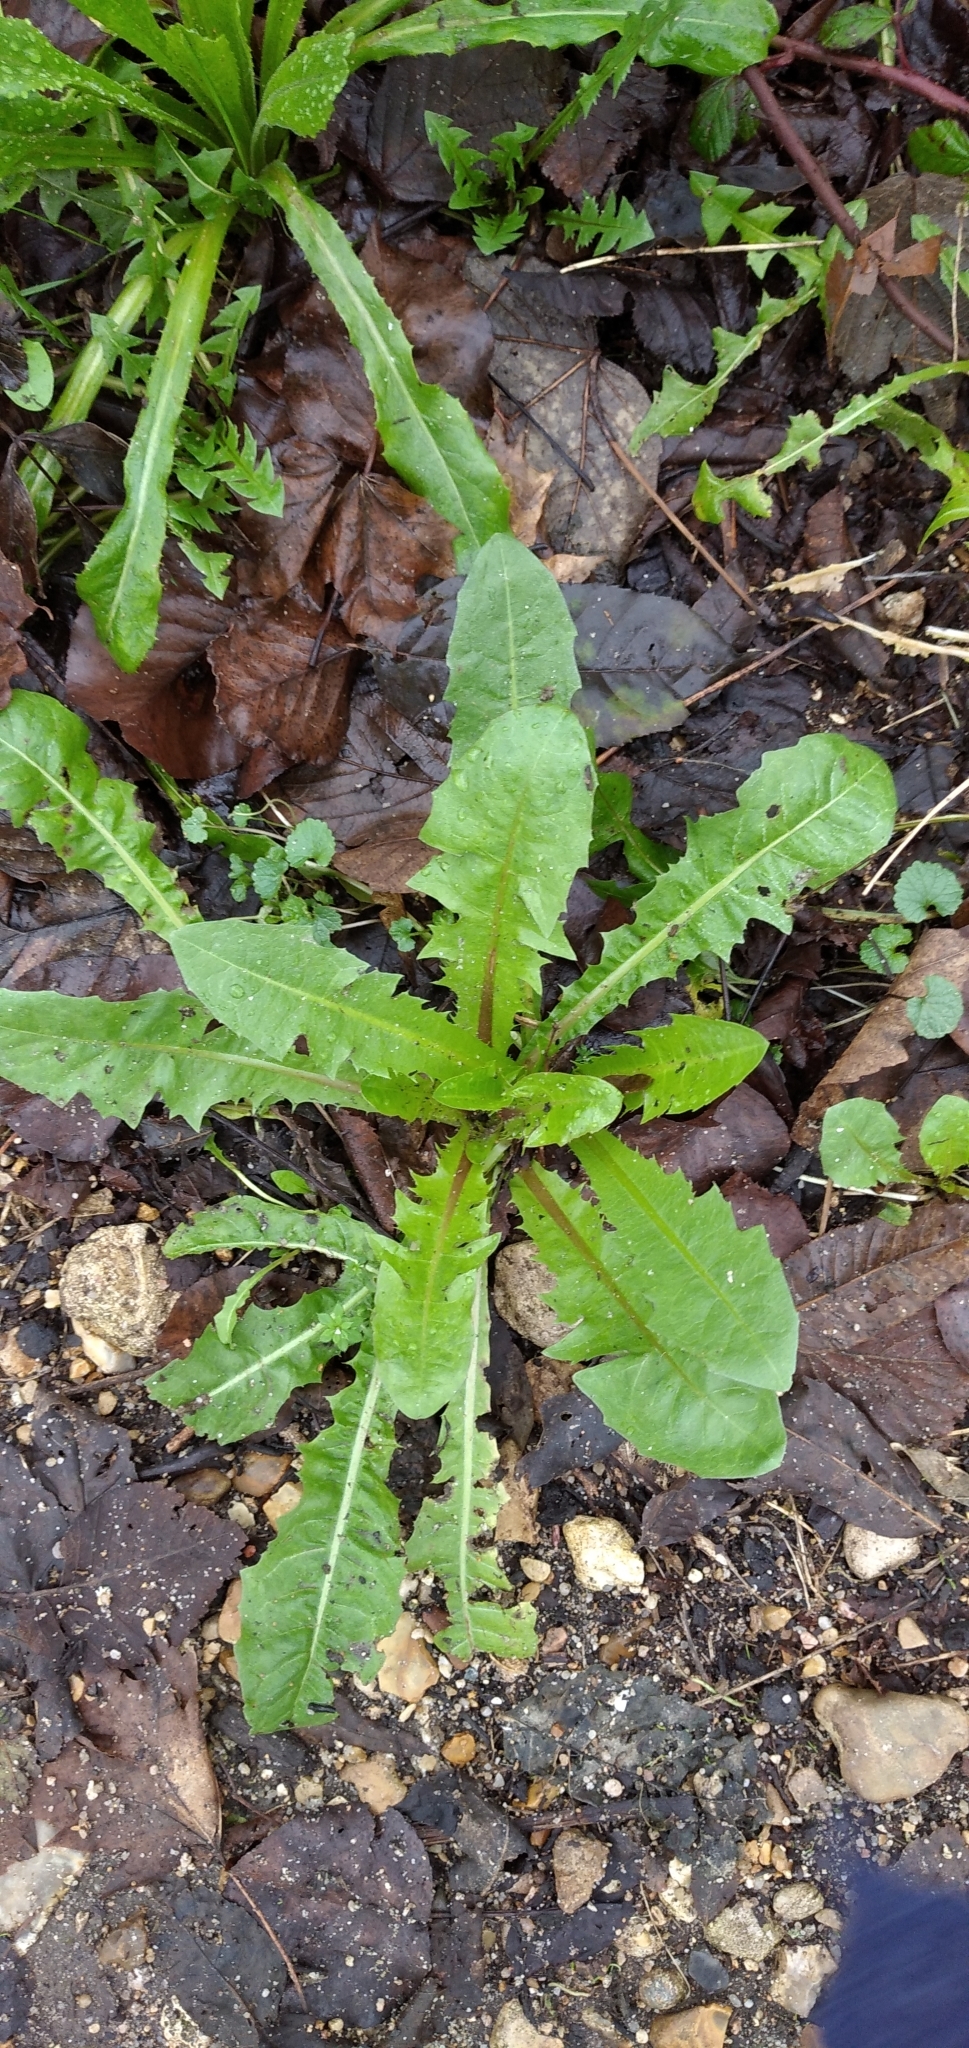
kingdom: Plantae
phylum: Tracheophyta
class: Magnoliopsida
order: Asterales
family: Asteraceae
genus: Taraxacum
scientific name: Taraxacum officinale
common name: Common dandelion
